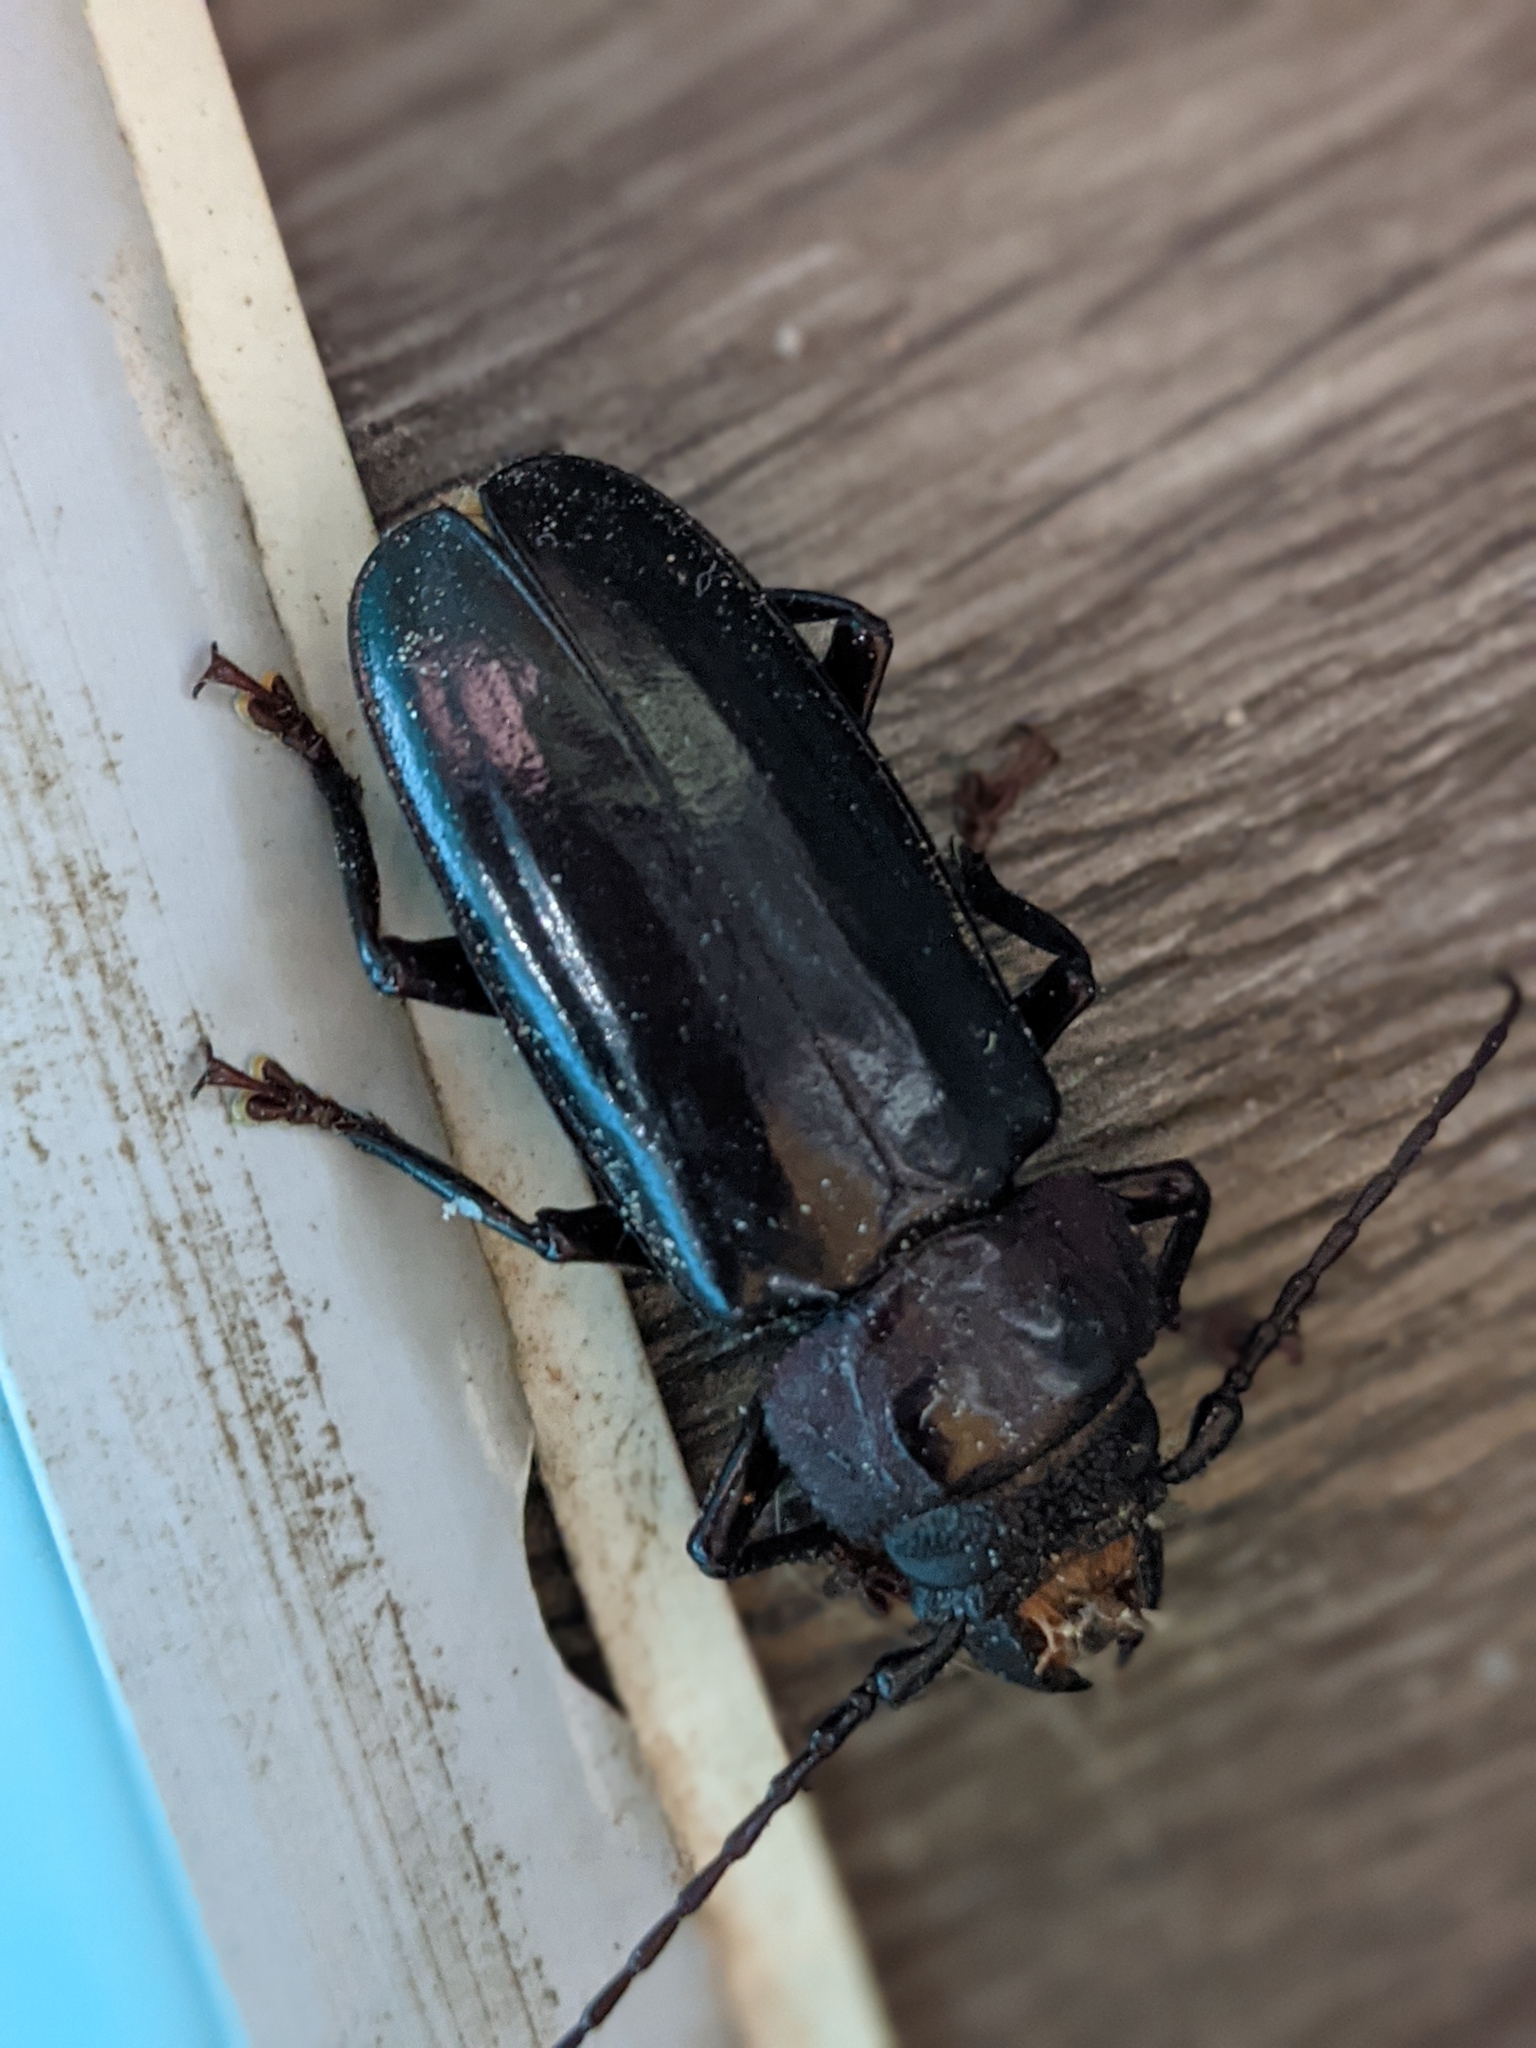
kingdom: Animalia
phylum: Arthropoda
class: Insecta
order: Coleoptera
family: Cerambycidae
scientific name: Cerambycidae
